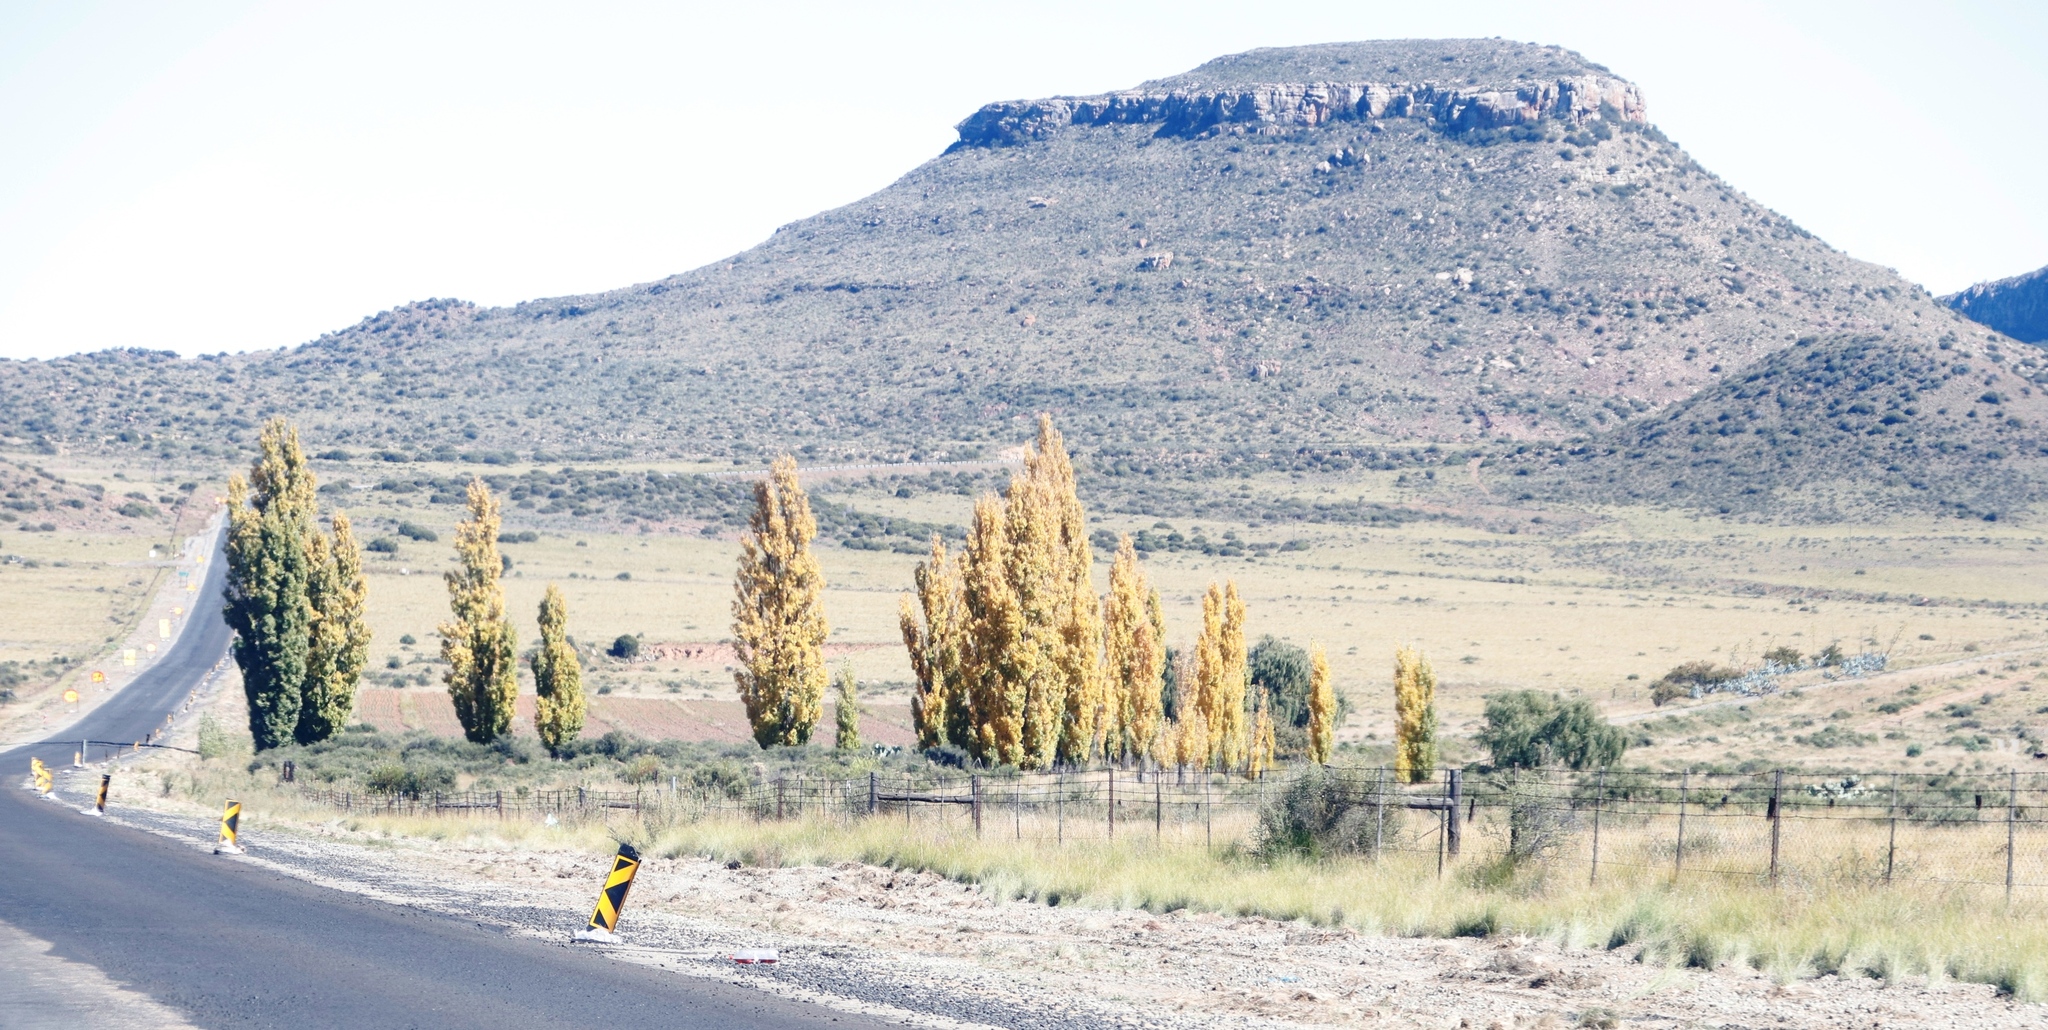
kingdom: Plantae
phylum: Tracheophyta
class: Magnoliopsida
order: Malpighiales
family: Salicaceae
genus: Populus
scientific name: Populus nigra
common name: Black poplar
